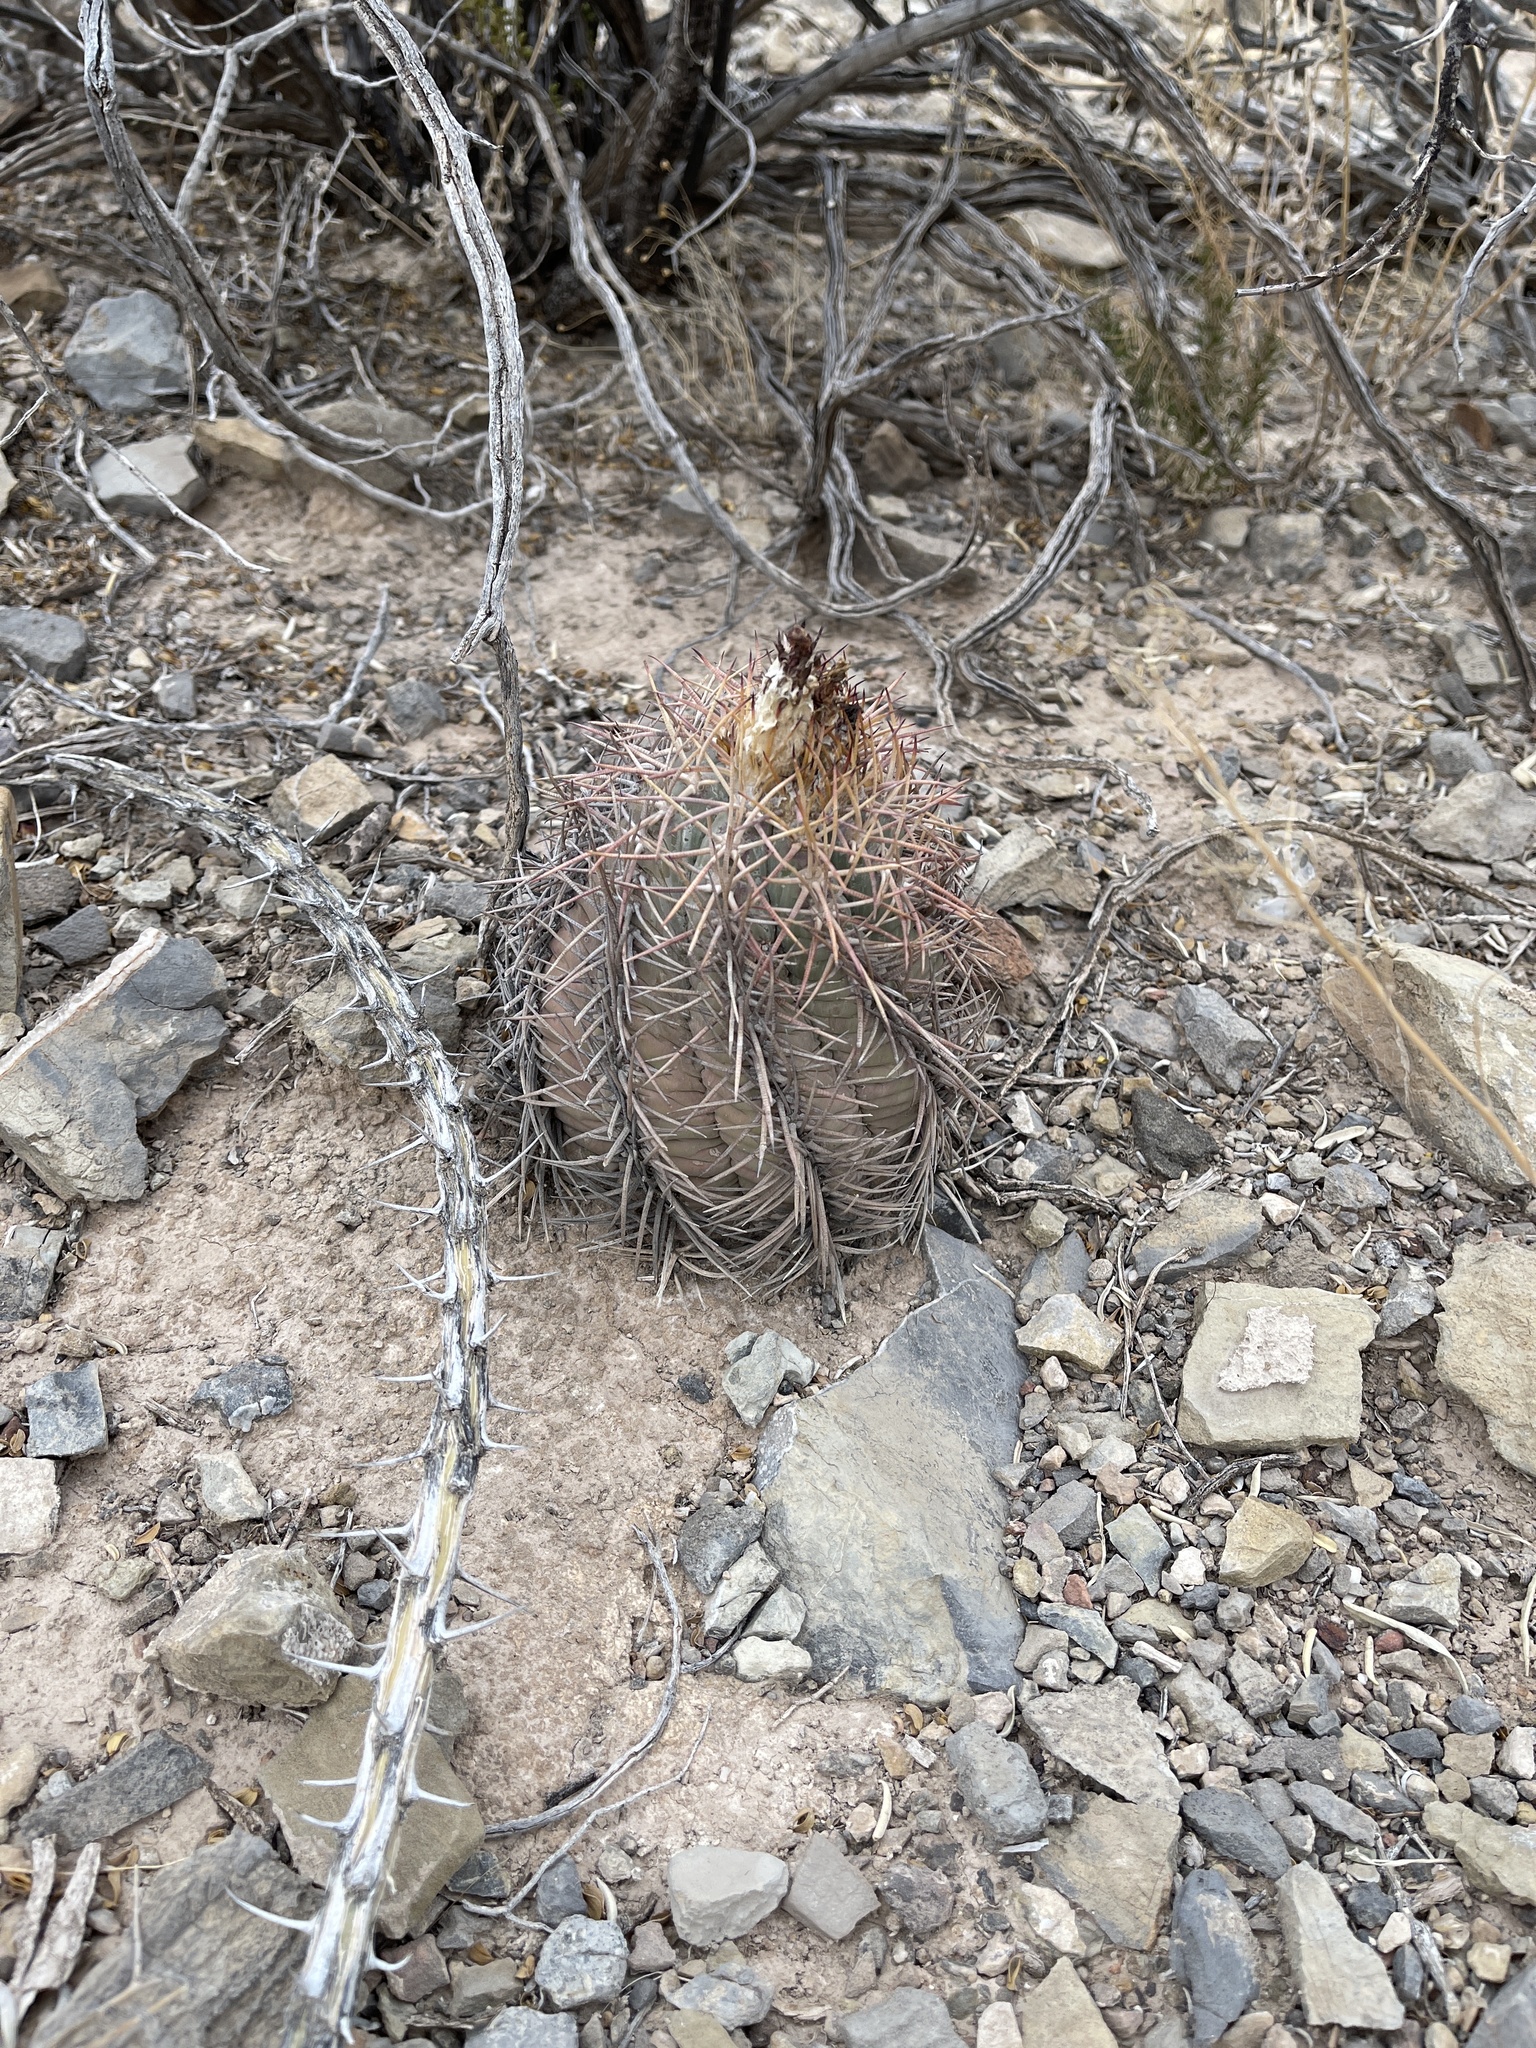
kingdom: Plantae
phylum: Tracheophyta
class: Magnoliopsida
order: Caryophyllales
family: Cactaceae
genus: Echinocactus
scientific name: Echinocactus horizonthalonius
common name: Devilshead
